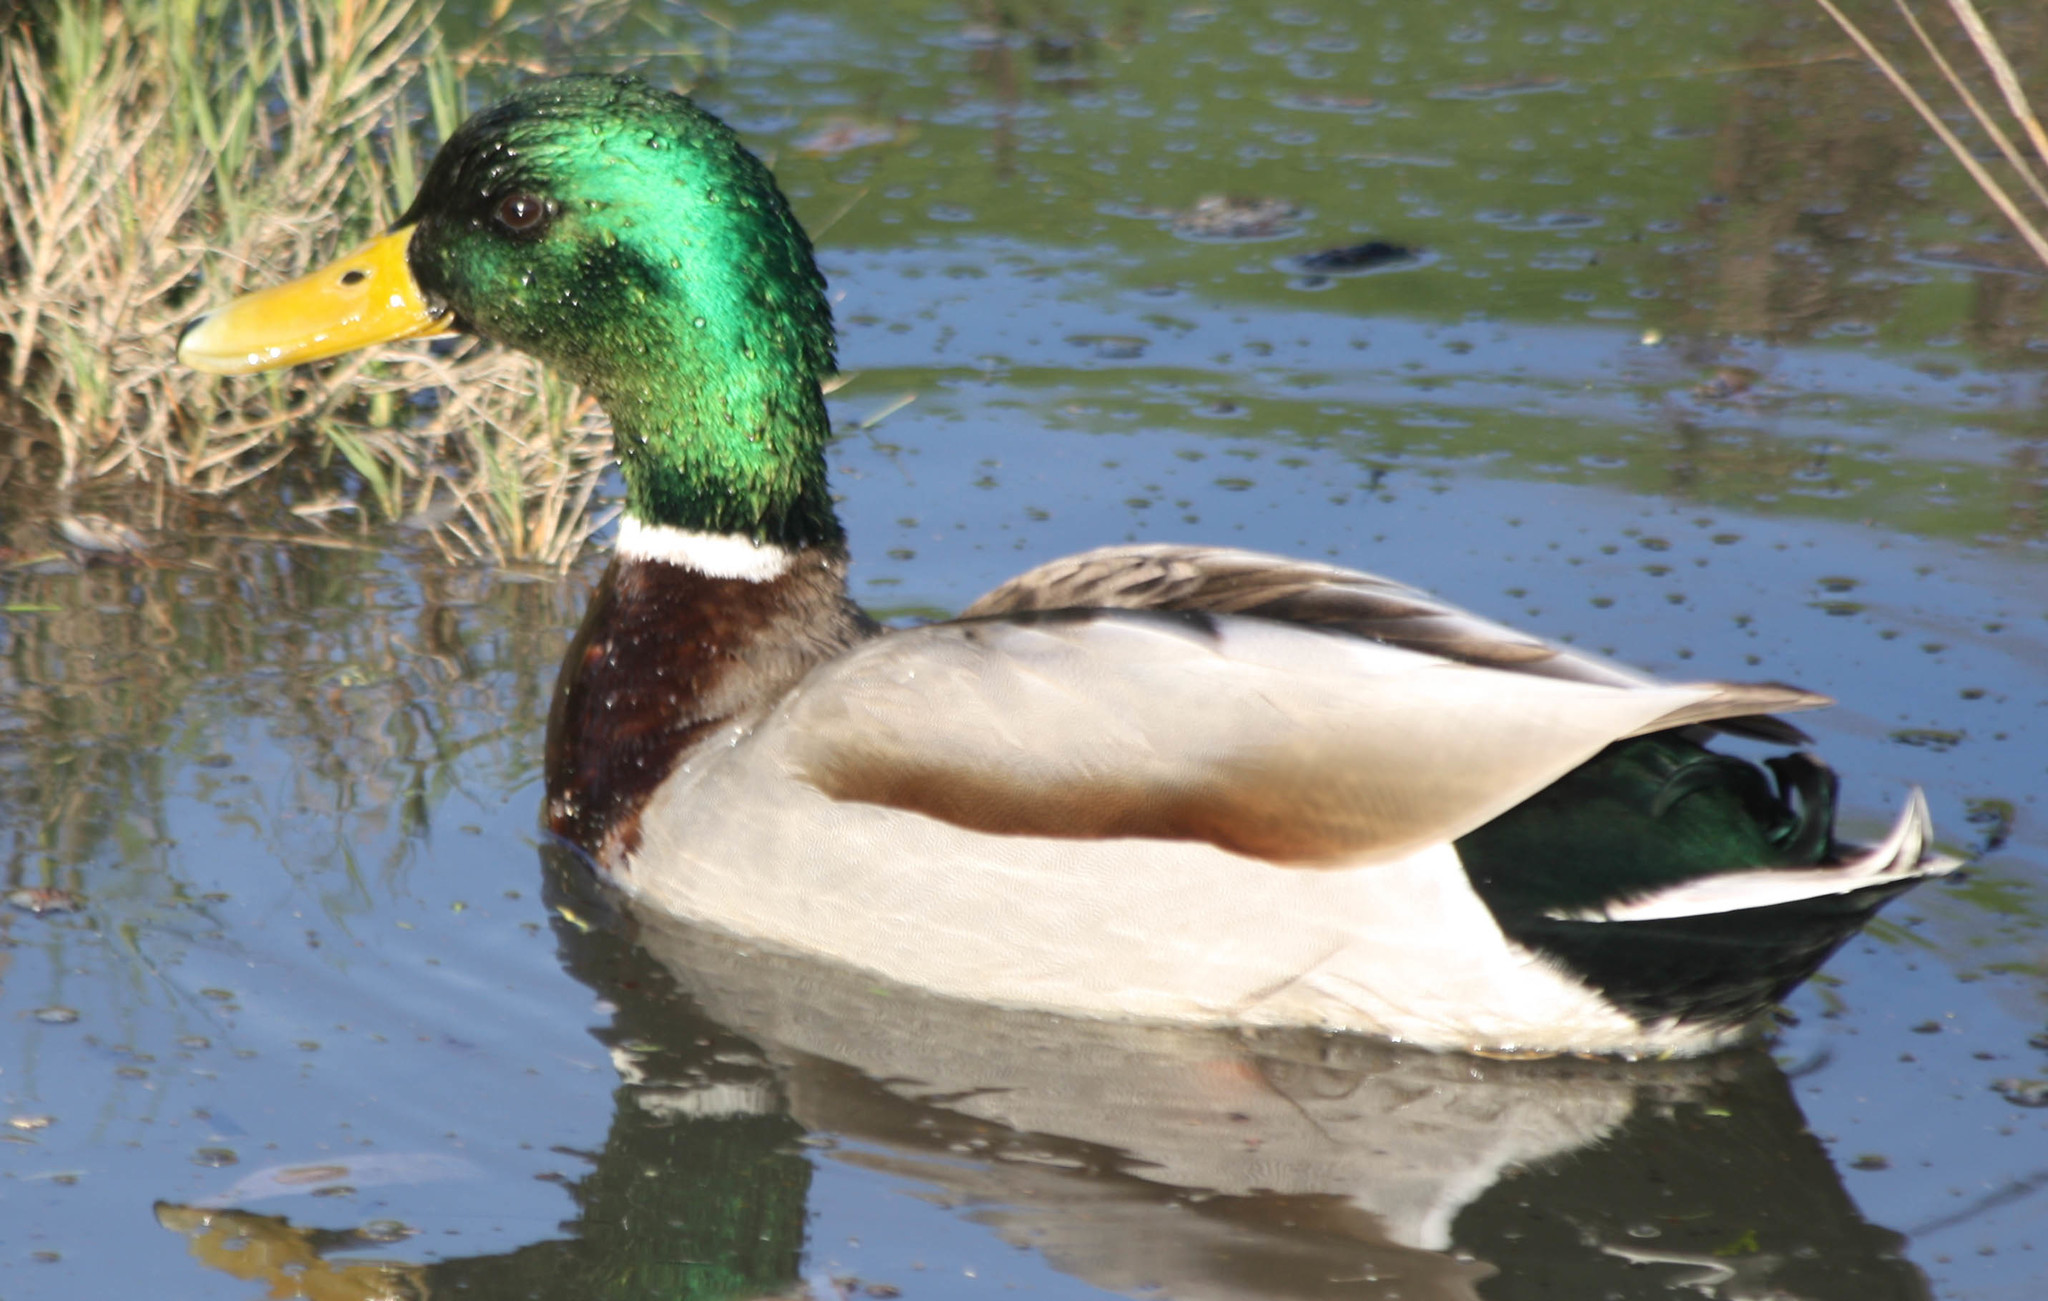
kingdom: Animalia
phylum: Chordata
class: Aves
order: Anseriformes
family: Anatidae
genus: Anas
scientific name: Anas platyrhynchos
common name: Mallard
